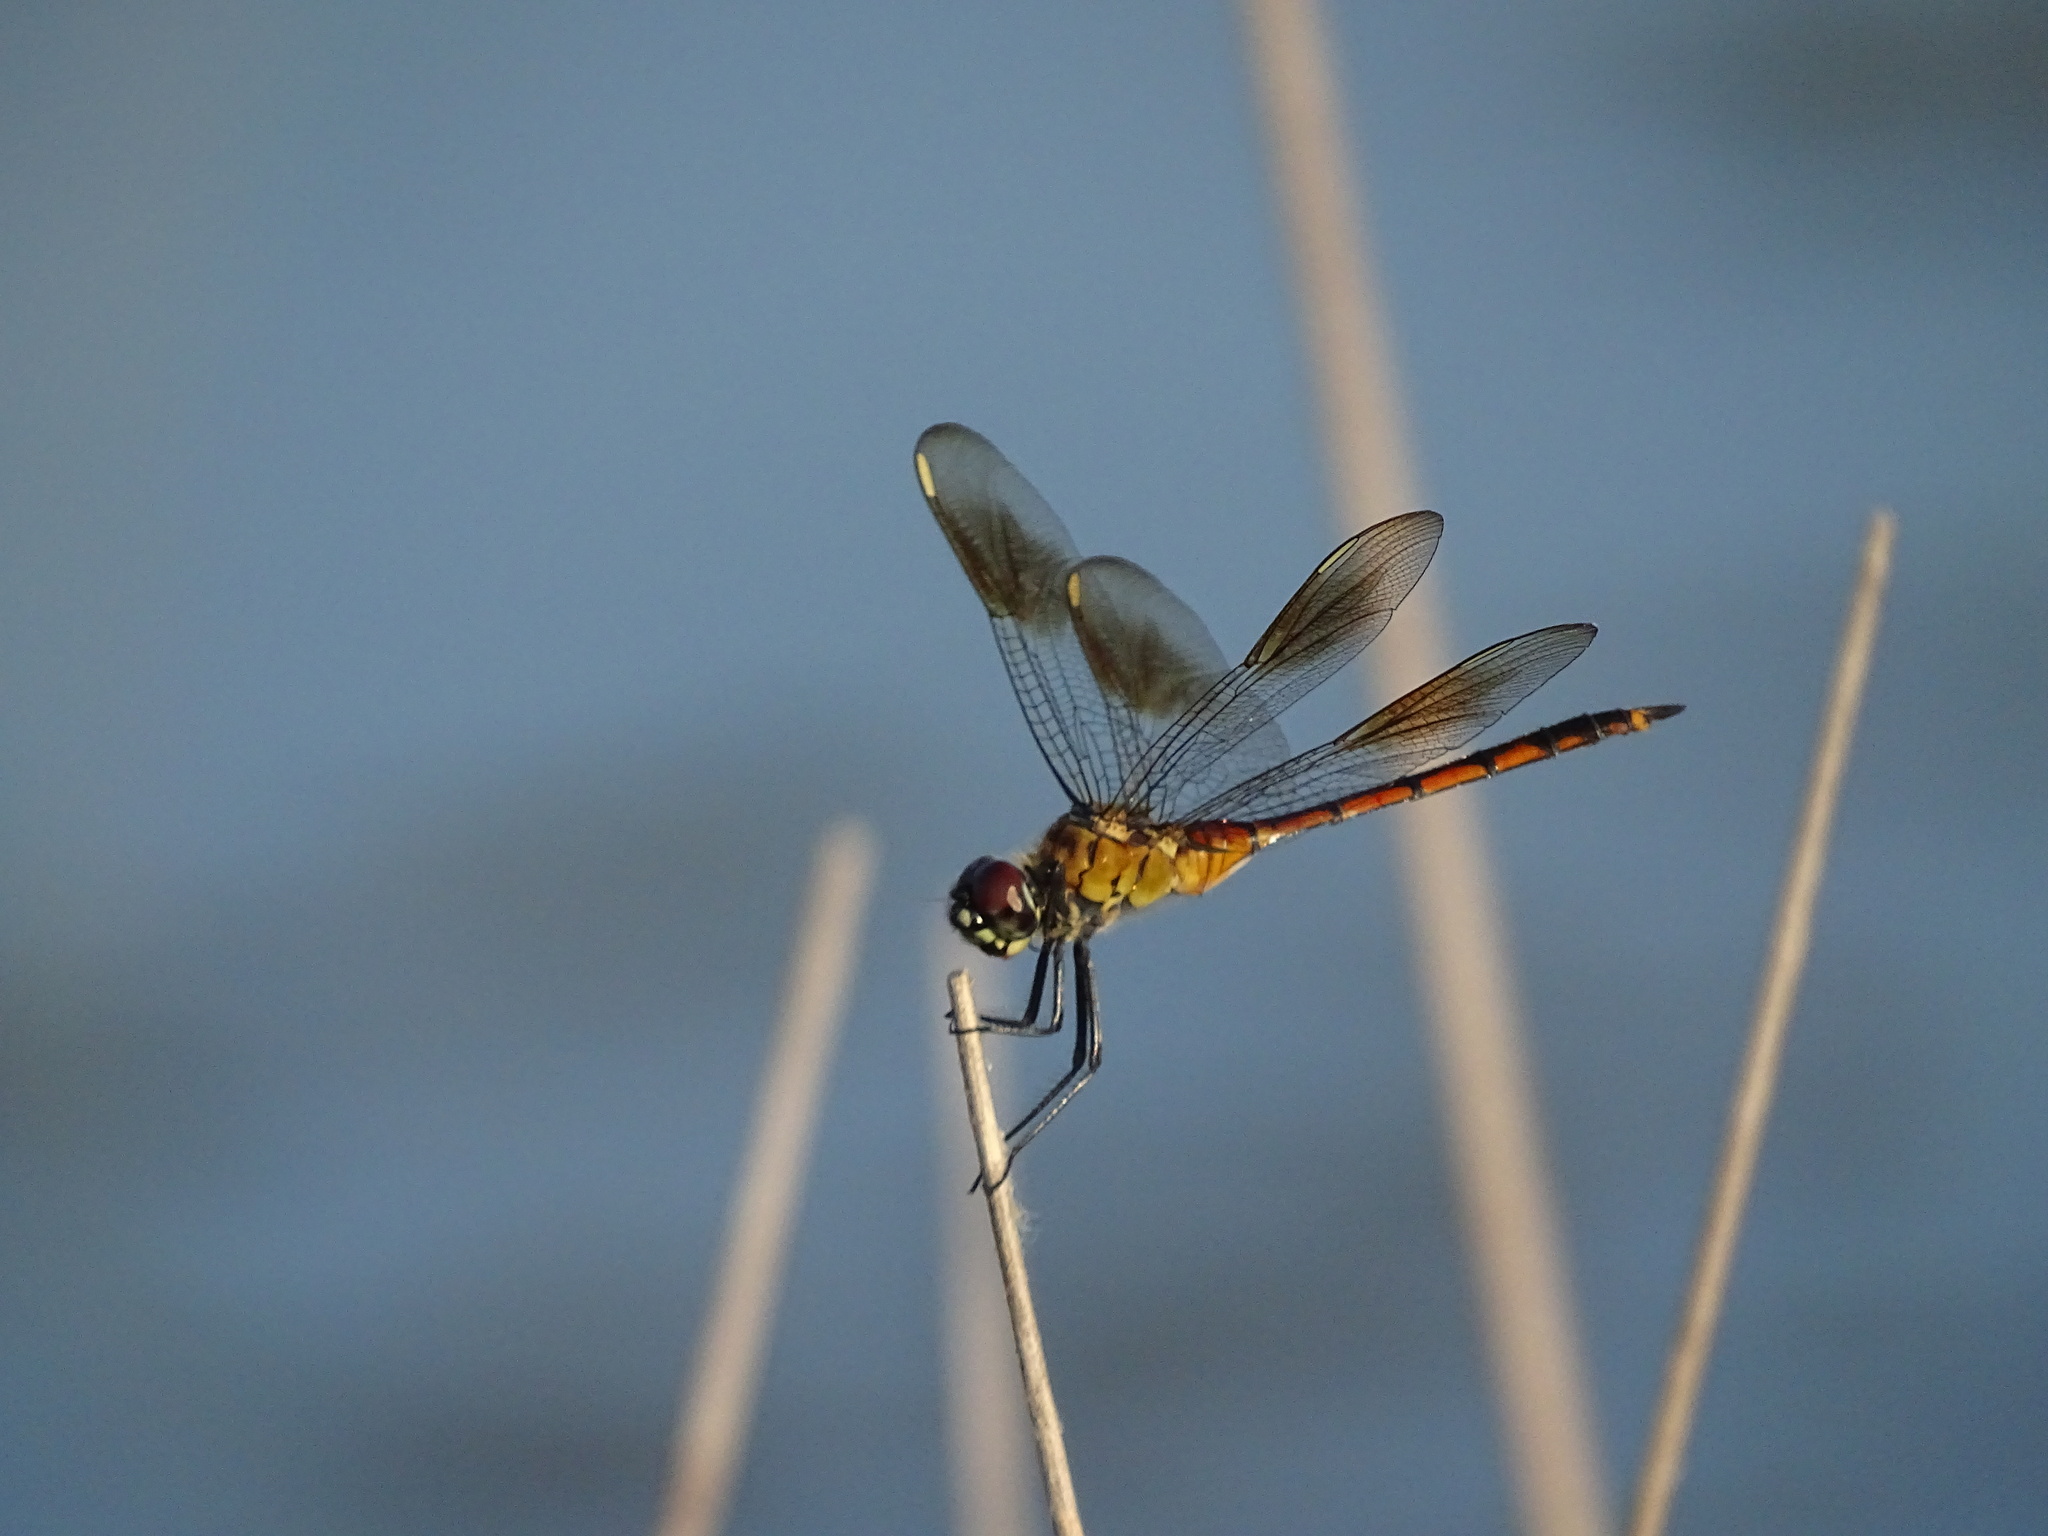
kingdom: Animalia
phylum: Arthropoda
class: Insecta
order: Odonata
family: Libellulidae
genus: Brachymesia
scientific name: Brachymesia gravida
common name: Four-spotted pennant
